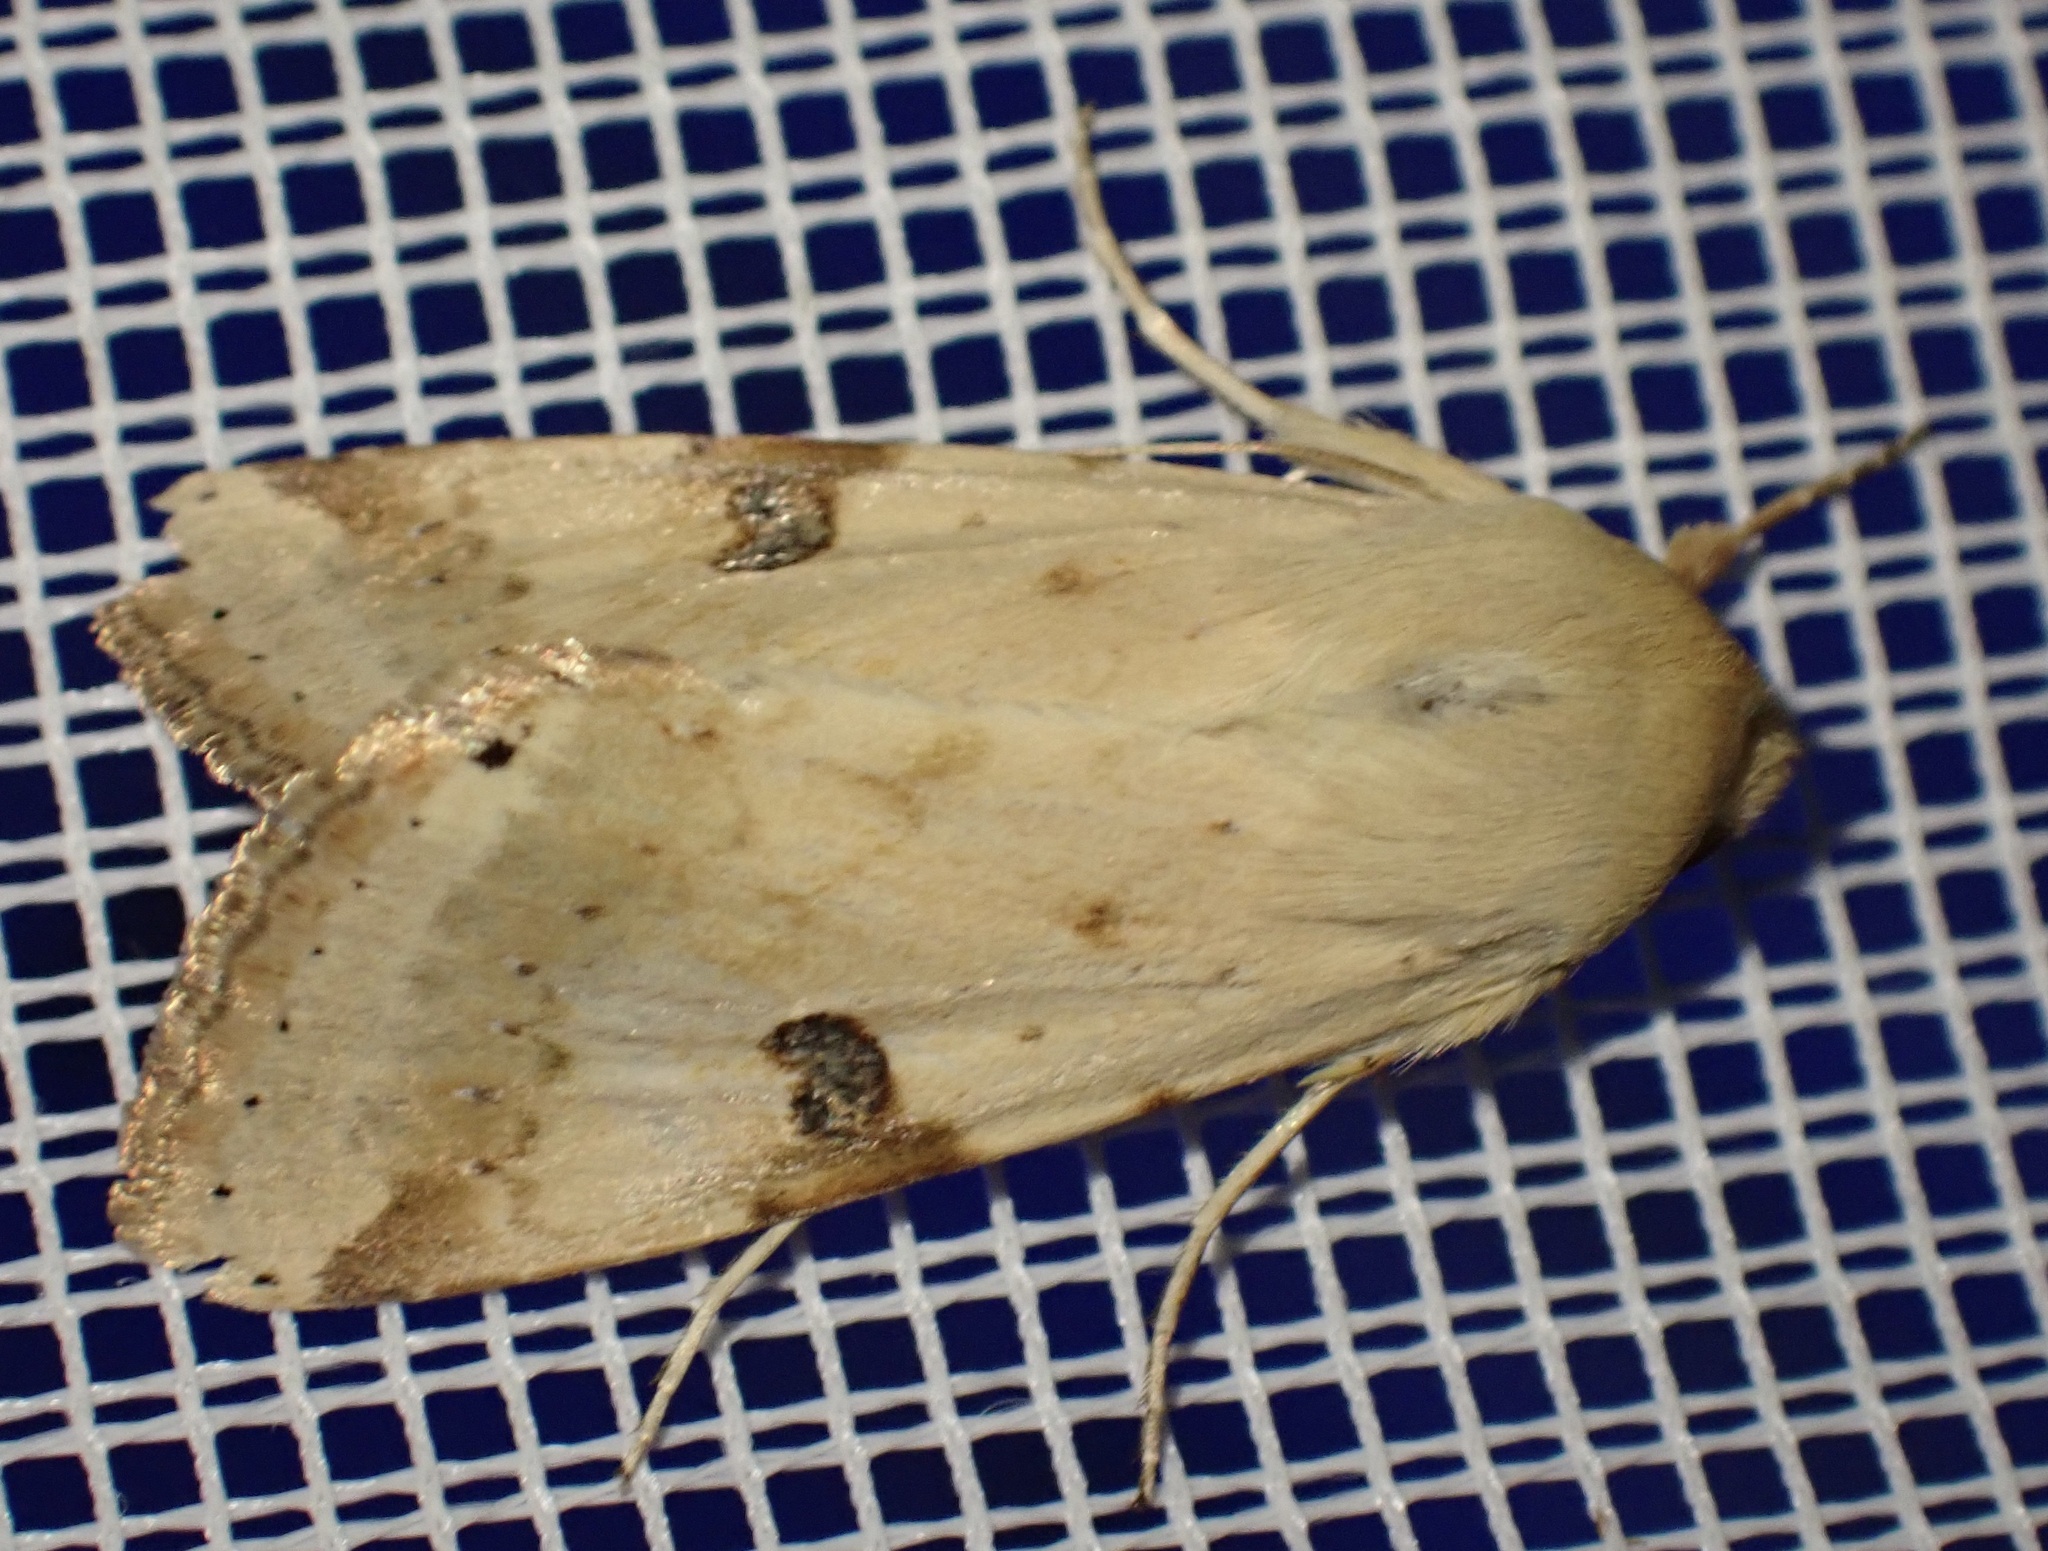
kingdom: Animalia
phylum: Arthropoda
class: Insecta
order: Lepidoptera
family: Noctuidae
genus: Heliothis
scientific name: Heliothis peltigera
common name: Bordered straw
